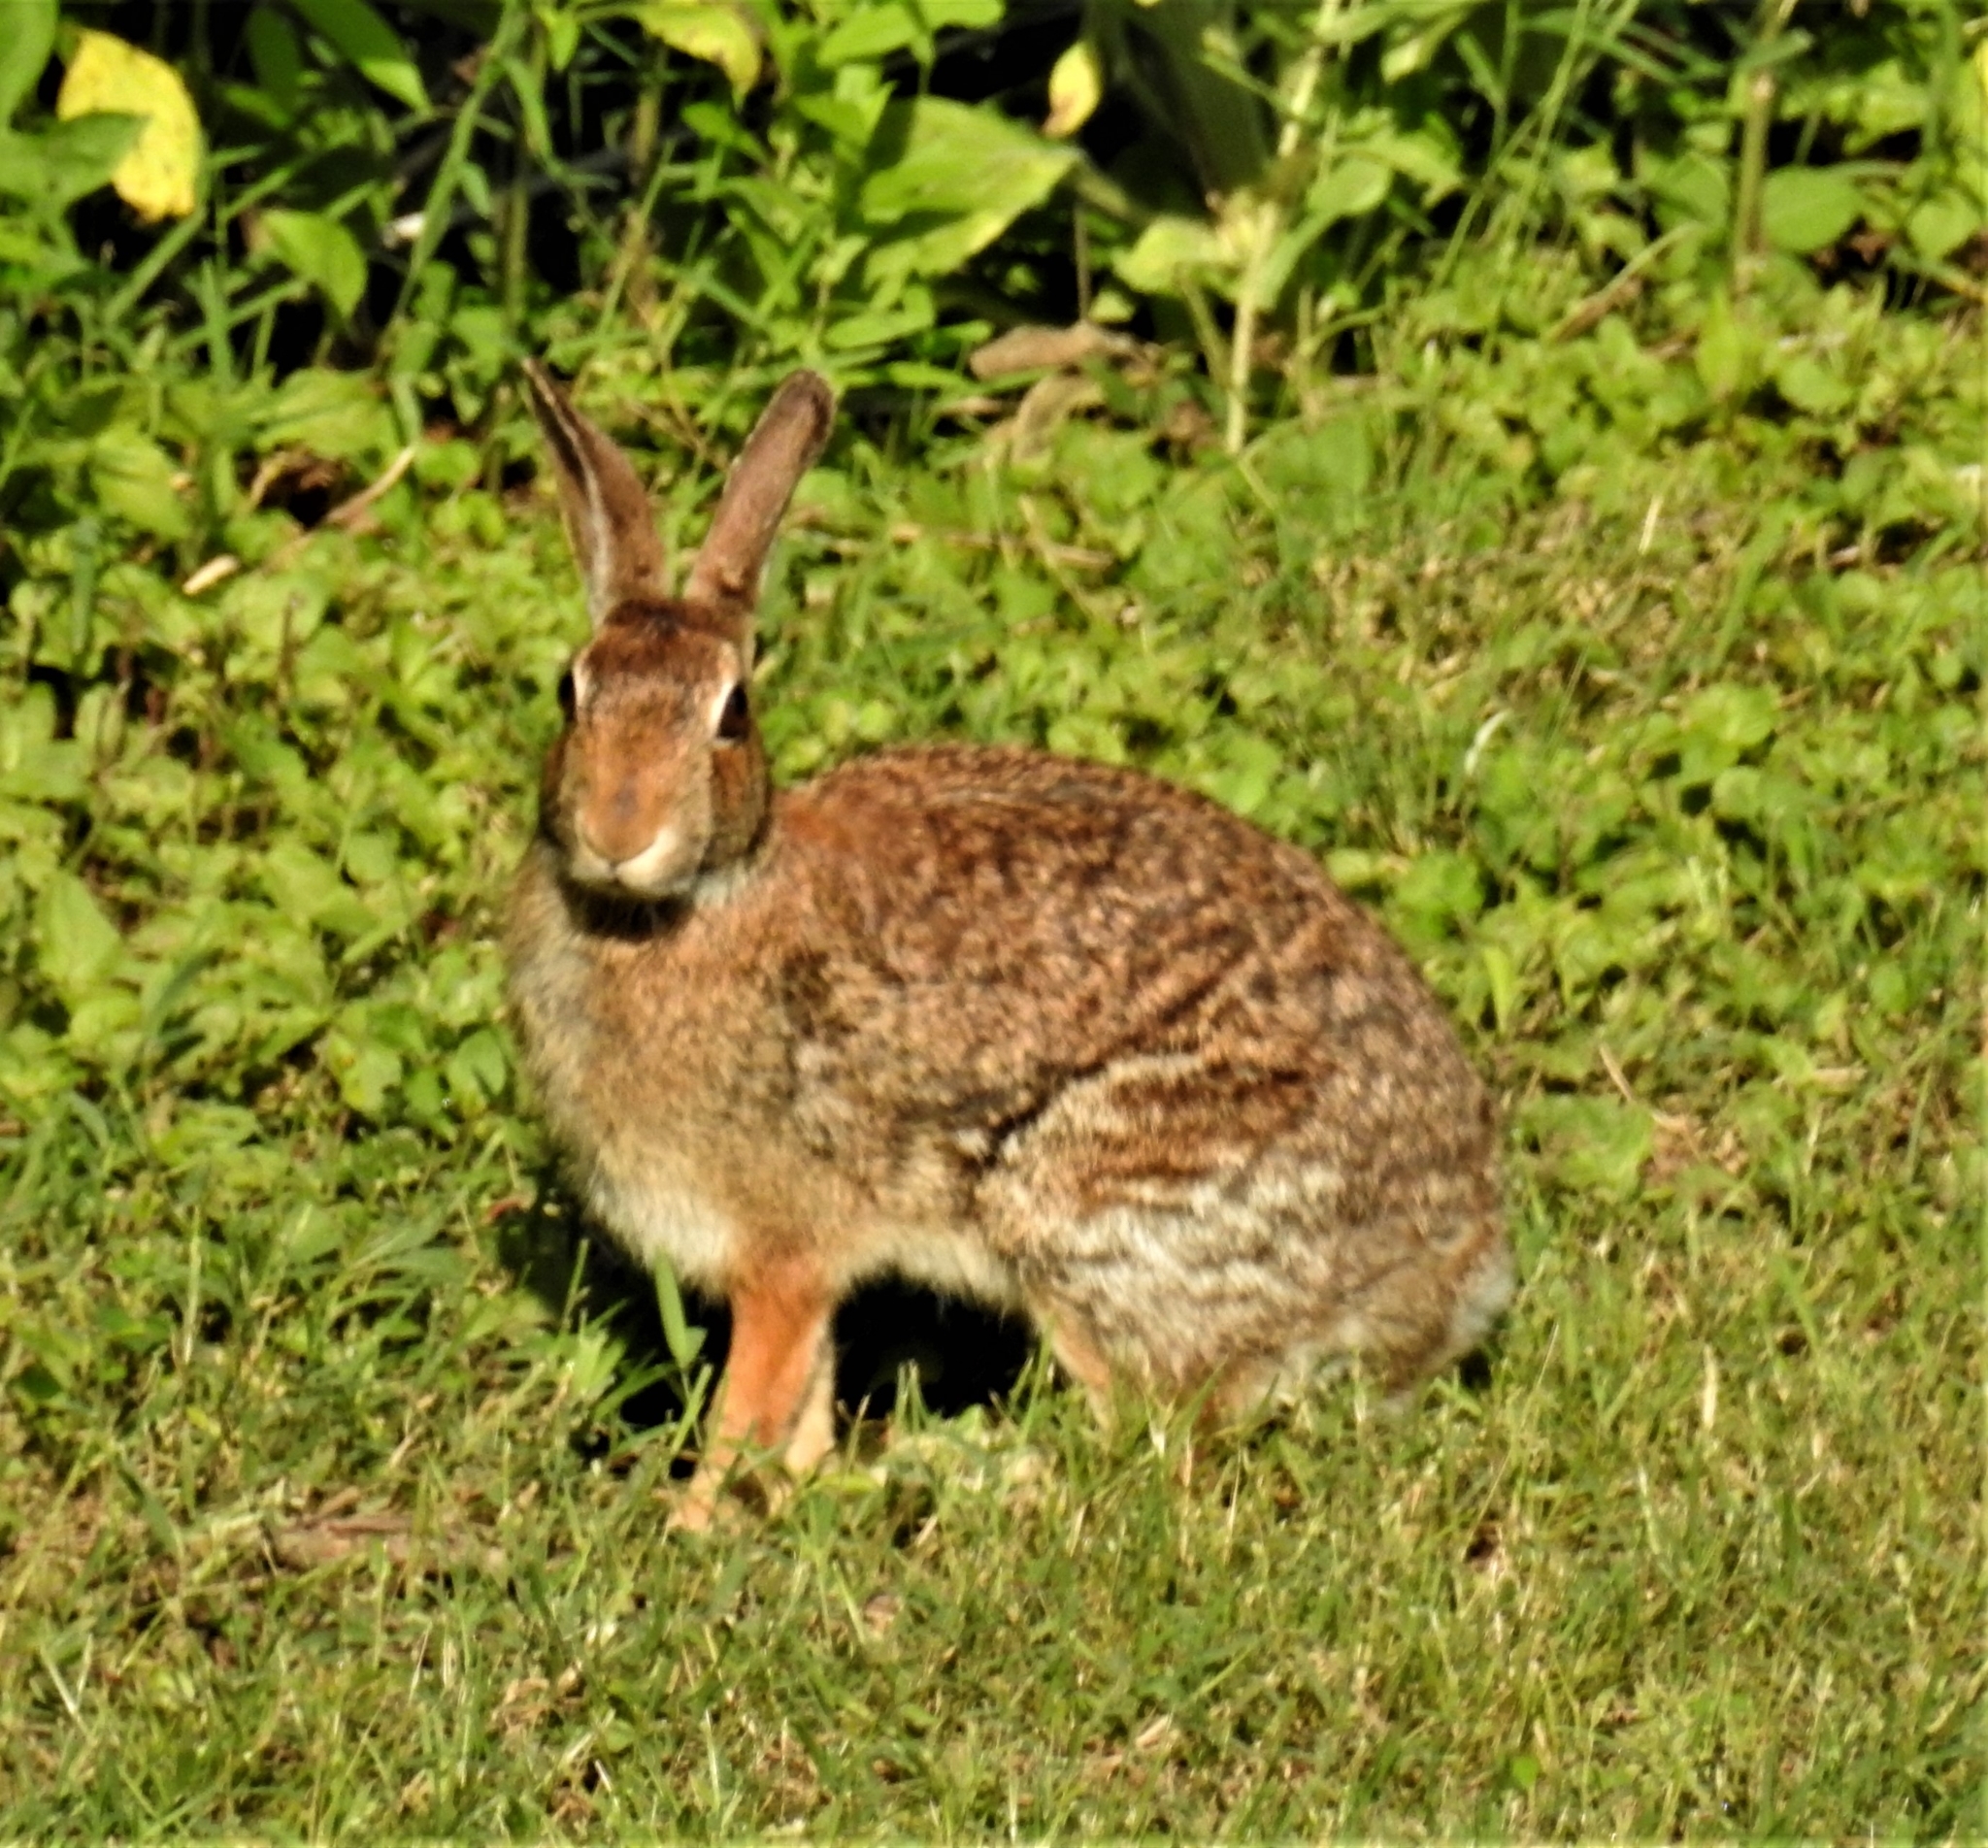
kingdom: Animalia
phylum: Chordata
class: Mammalia
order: Lagomorpha
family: Leporidae
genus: Sylvilagus
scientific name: Sylvilagus floridanus
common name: Eastern cottontail
